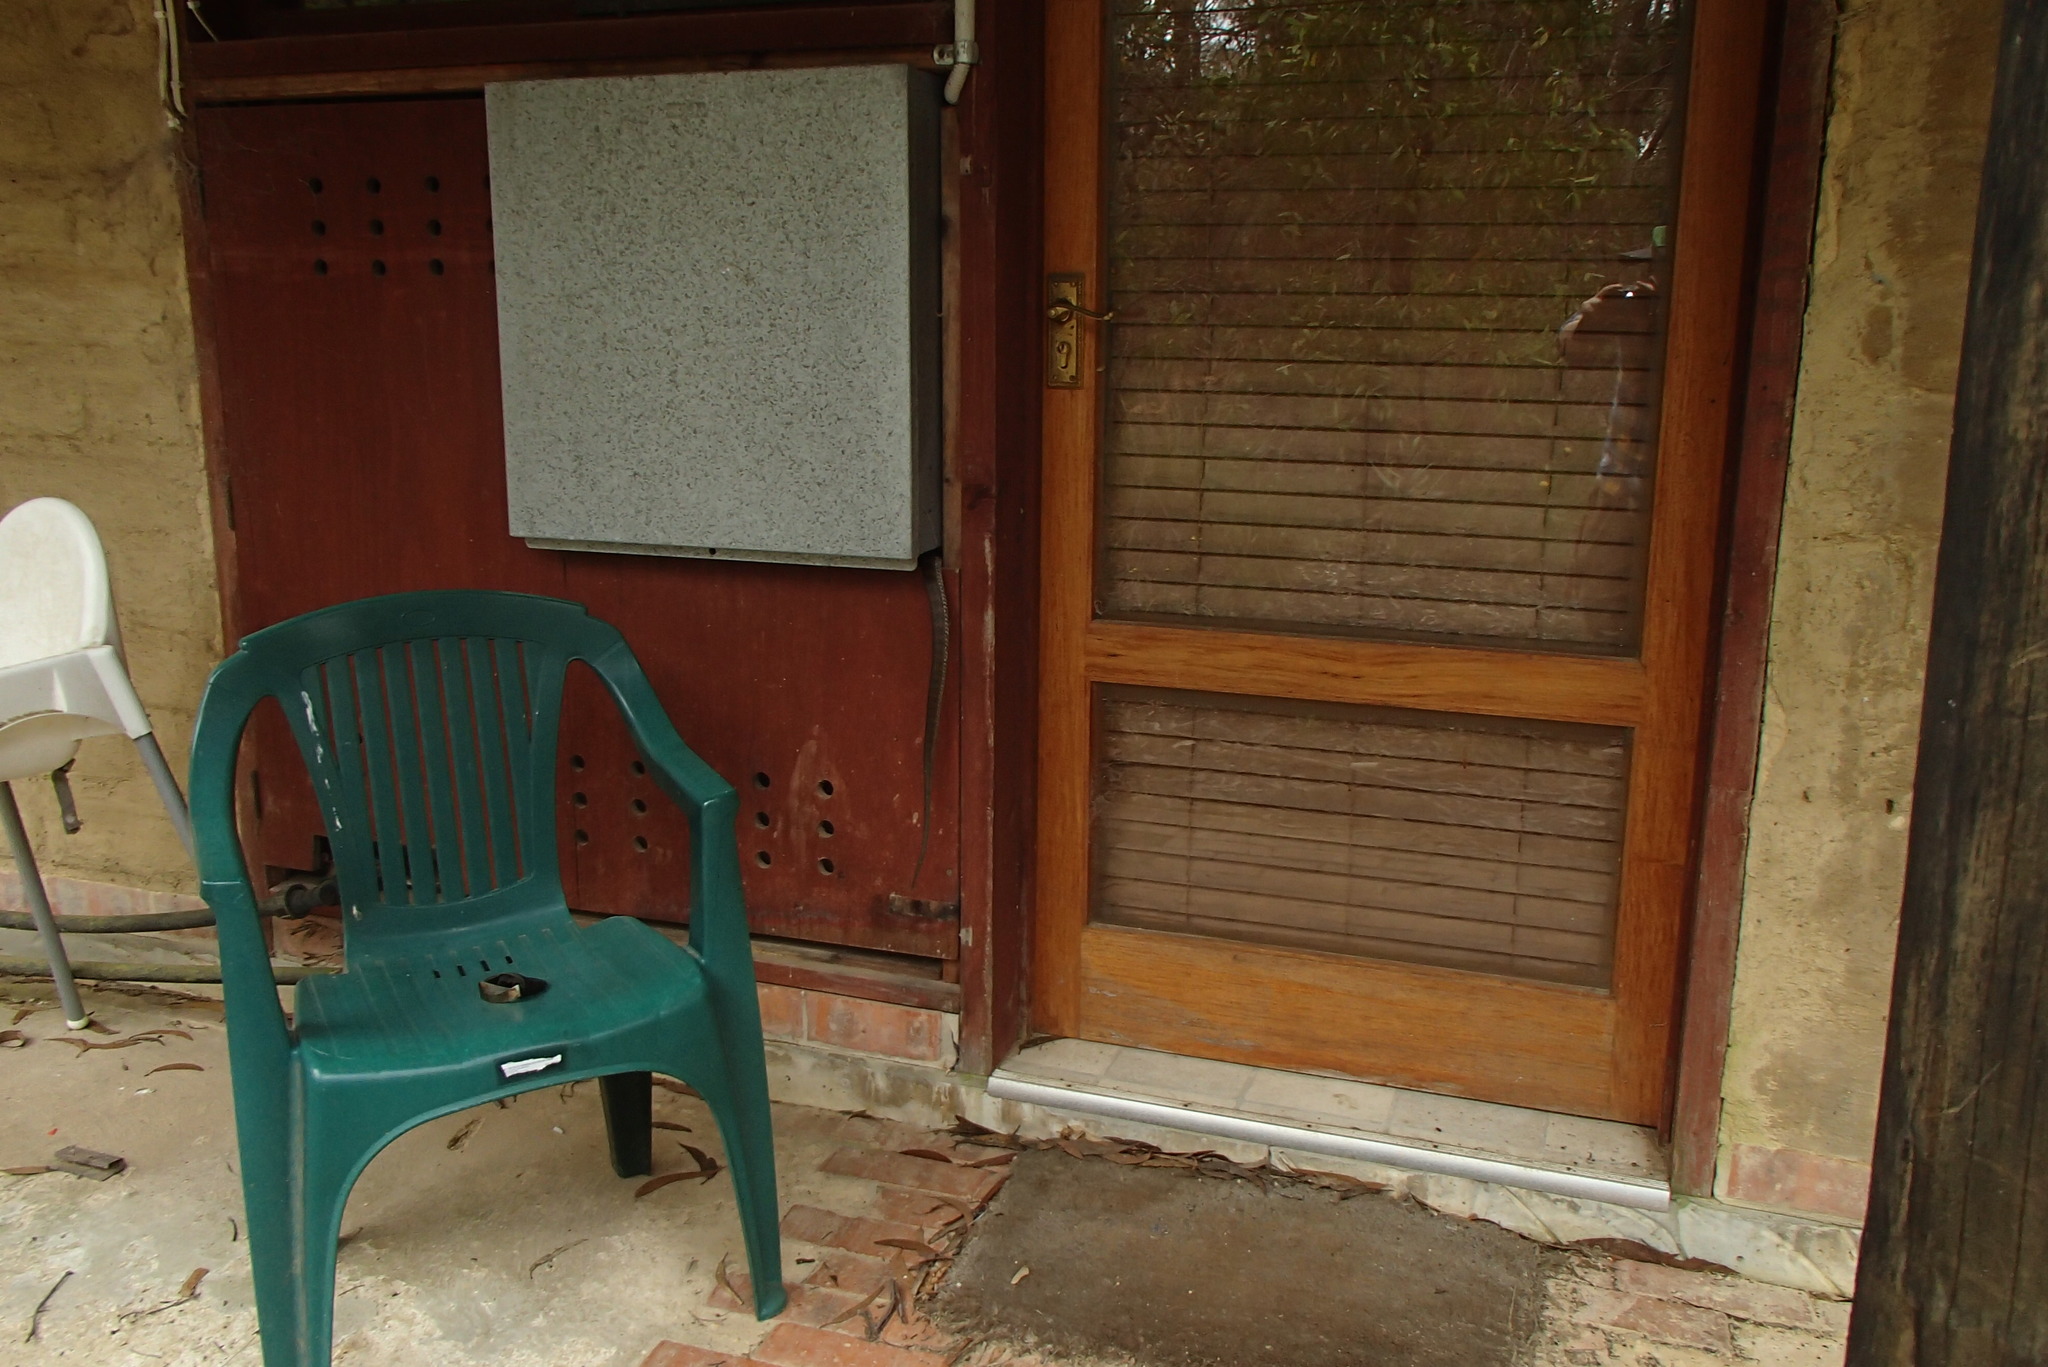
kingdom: Animalia
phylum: Chordata
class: Squamata
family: Elapidae
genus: Notechis
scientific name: Notechis scutatus
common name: Mainland tiger snake
